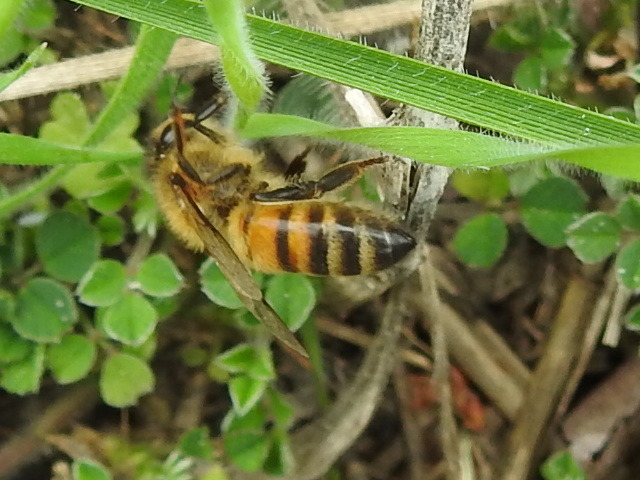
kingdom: Animalia
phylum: Arthropoda
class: Insecta
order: Hymenoptera
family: Apidae
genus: Apis
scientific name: Apis mellifera
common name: Honey bee
